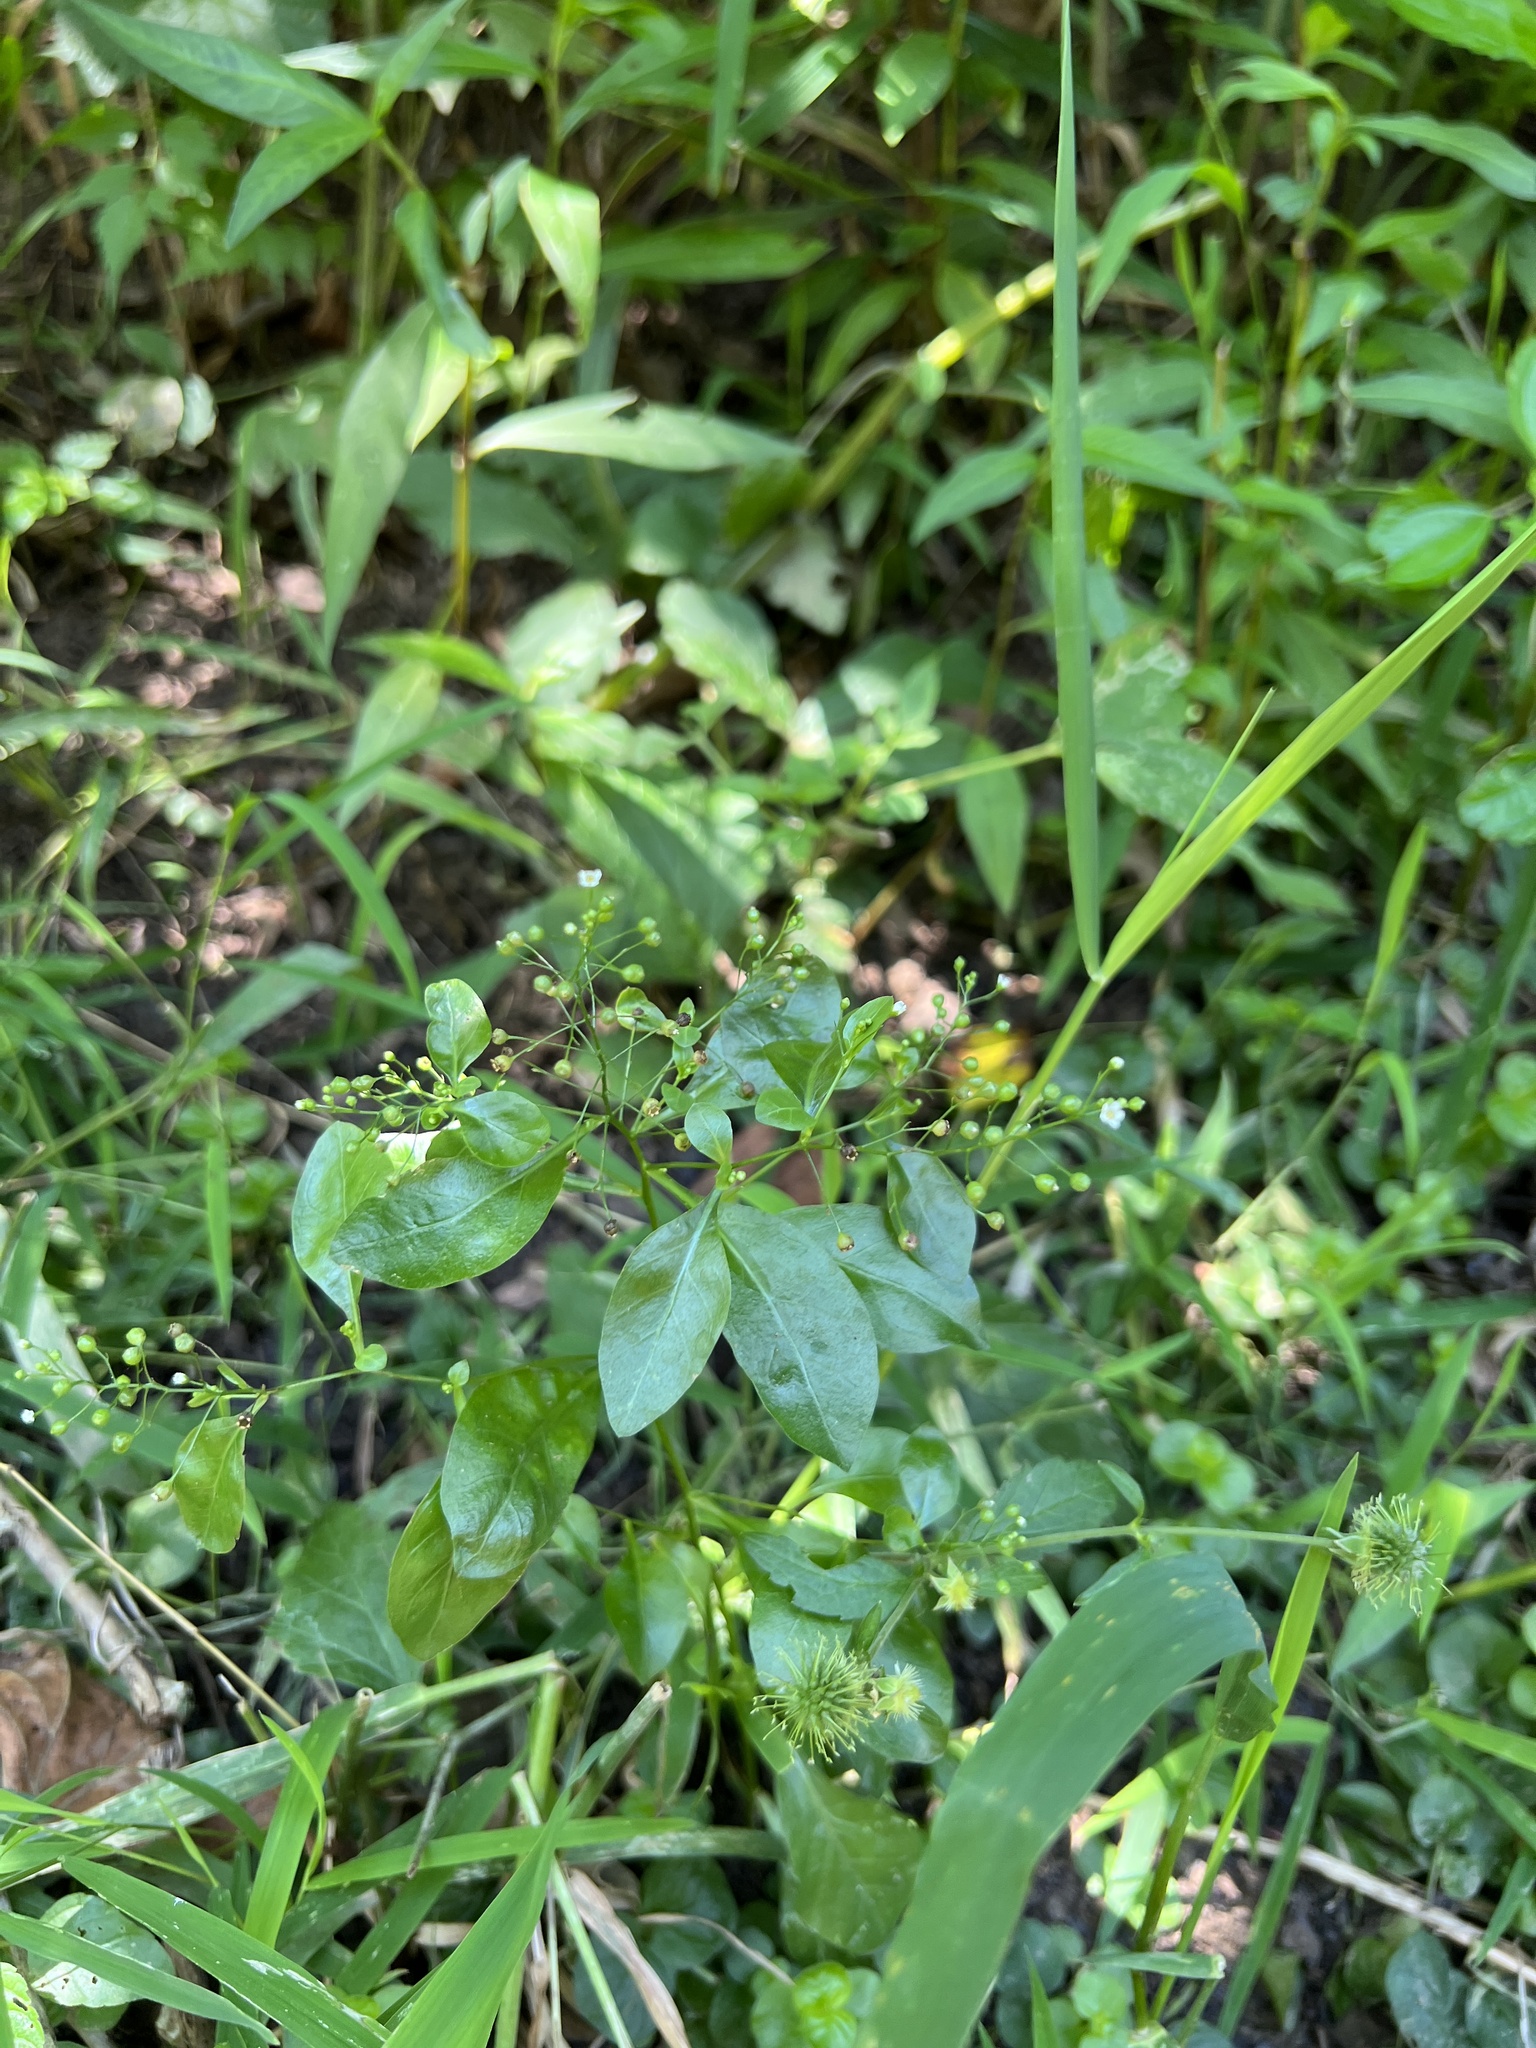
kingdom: Plantae
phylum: Tracheophyta
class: Magnoliopsida
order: Ericales
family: Primulaceae
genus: Samolus
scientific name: Samolus parviflorus
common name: False water pimpernel
